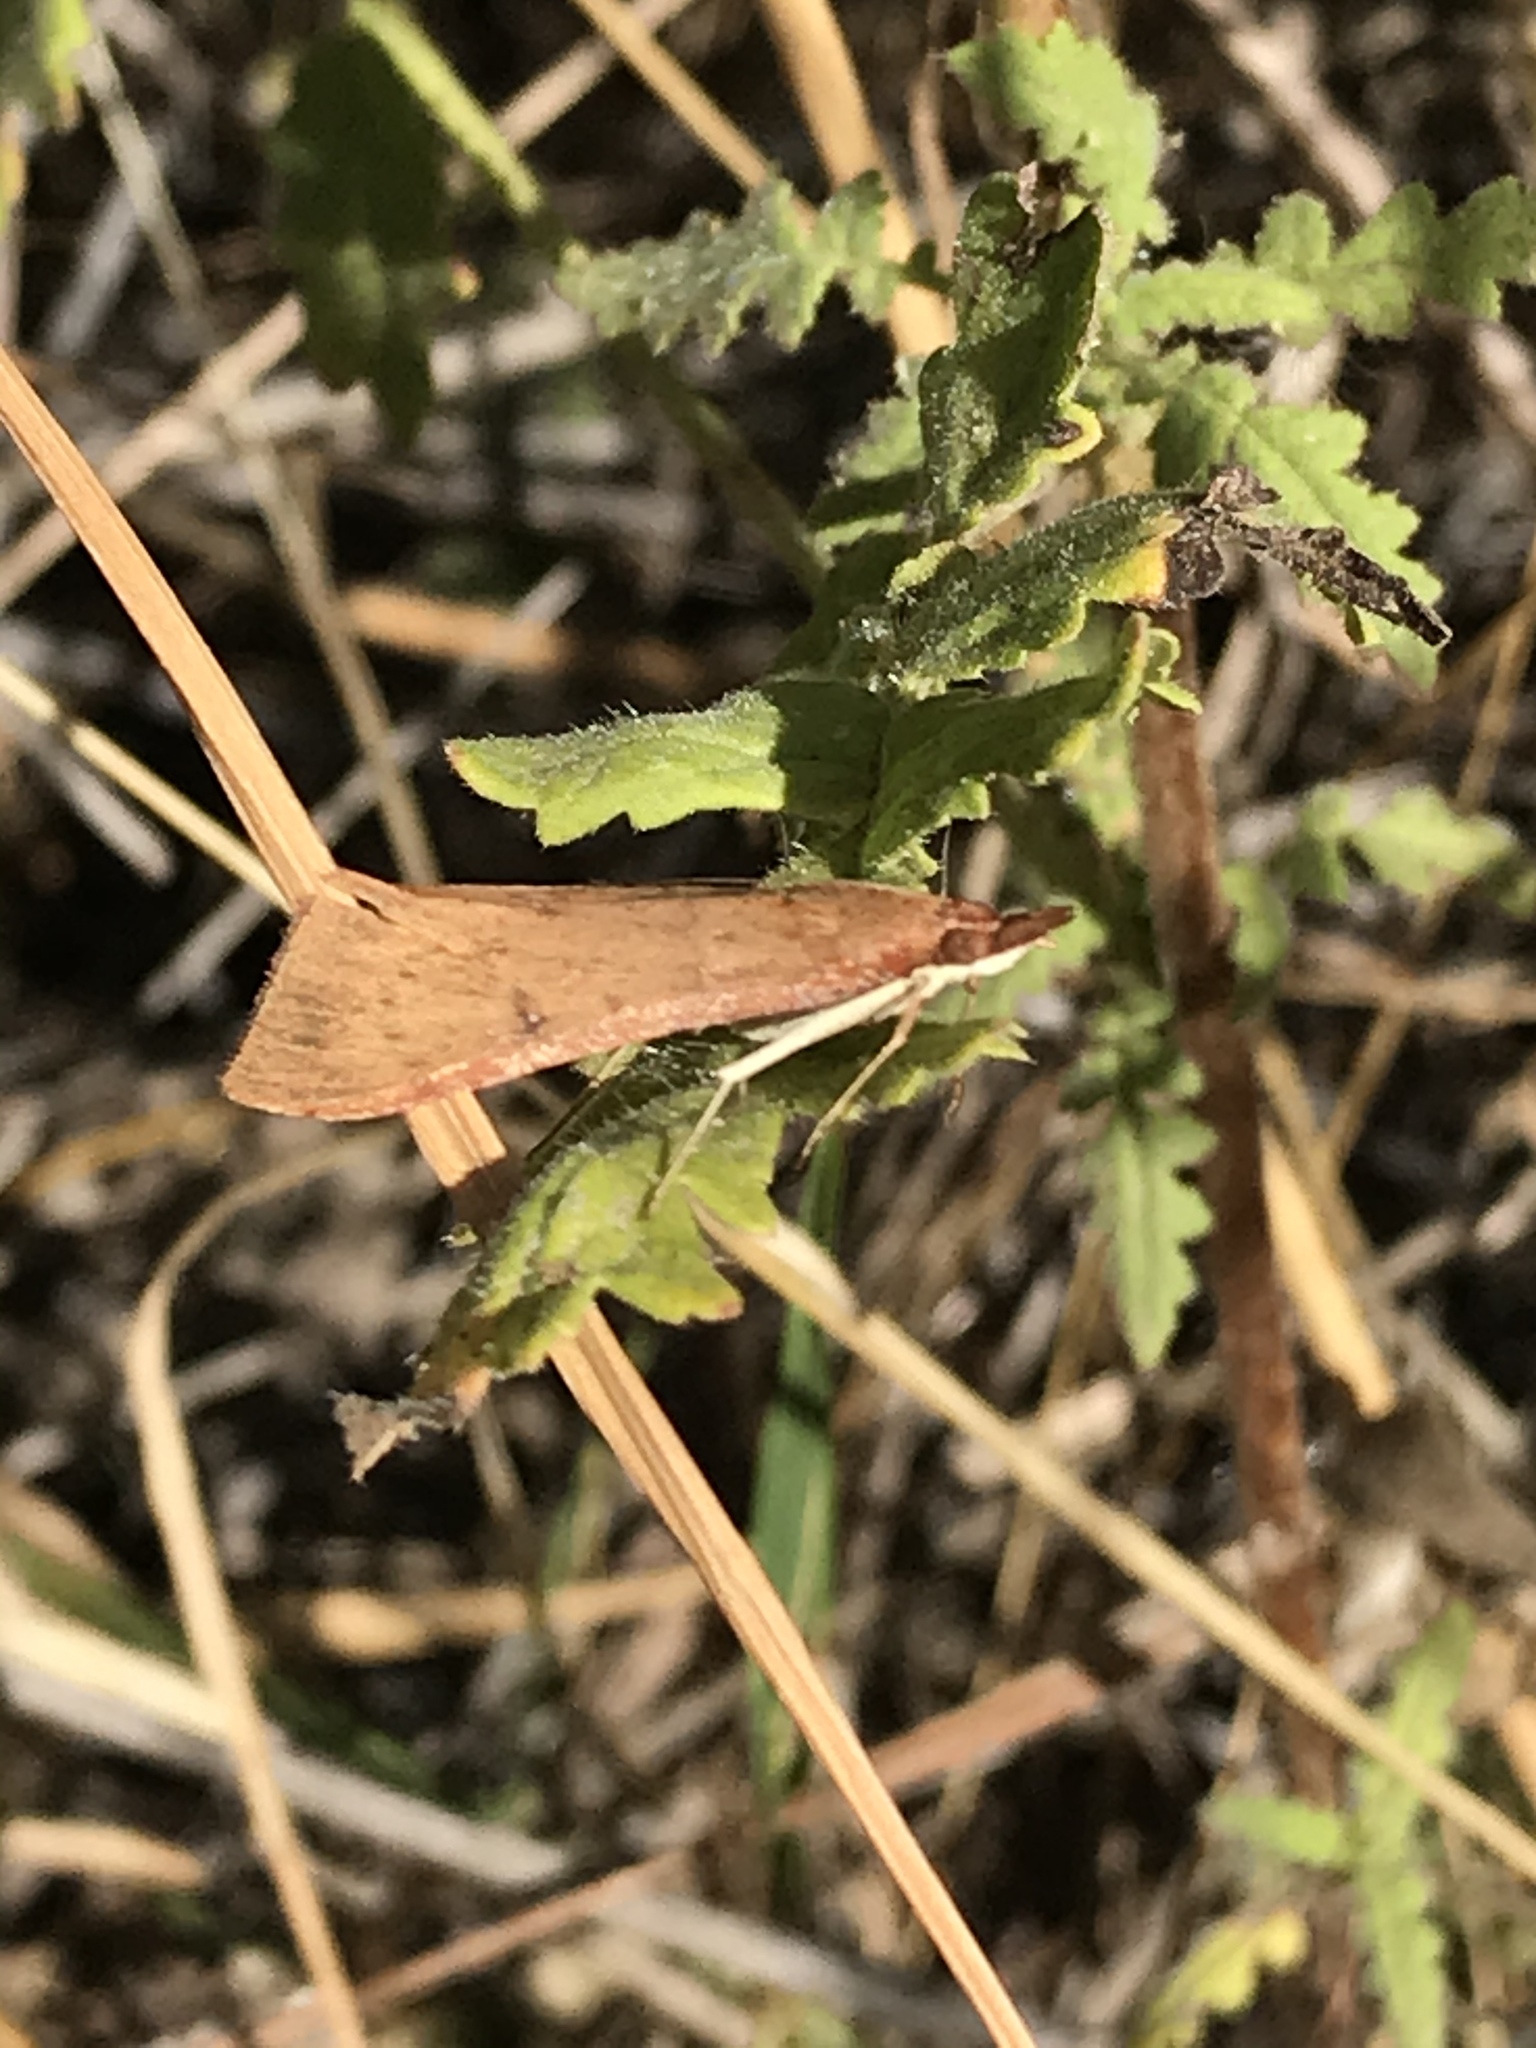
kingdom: Animalia
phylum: Arthropoda
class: Insecta
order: Lepidoptera
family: Crambidae
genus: Uresiphita
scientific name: Uresiphita reversalis
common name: Genista broom moth
